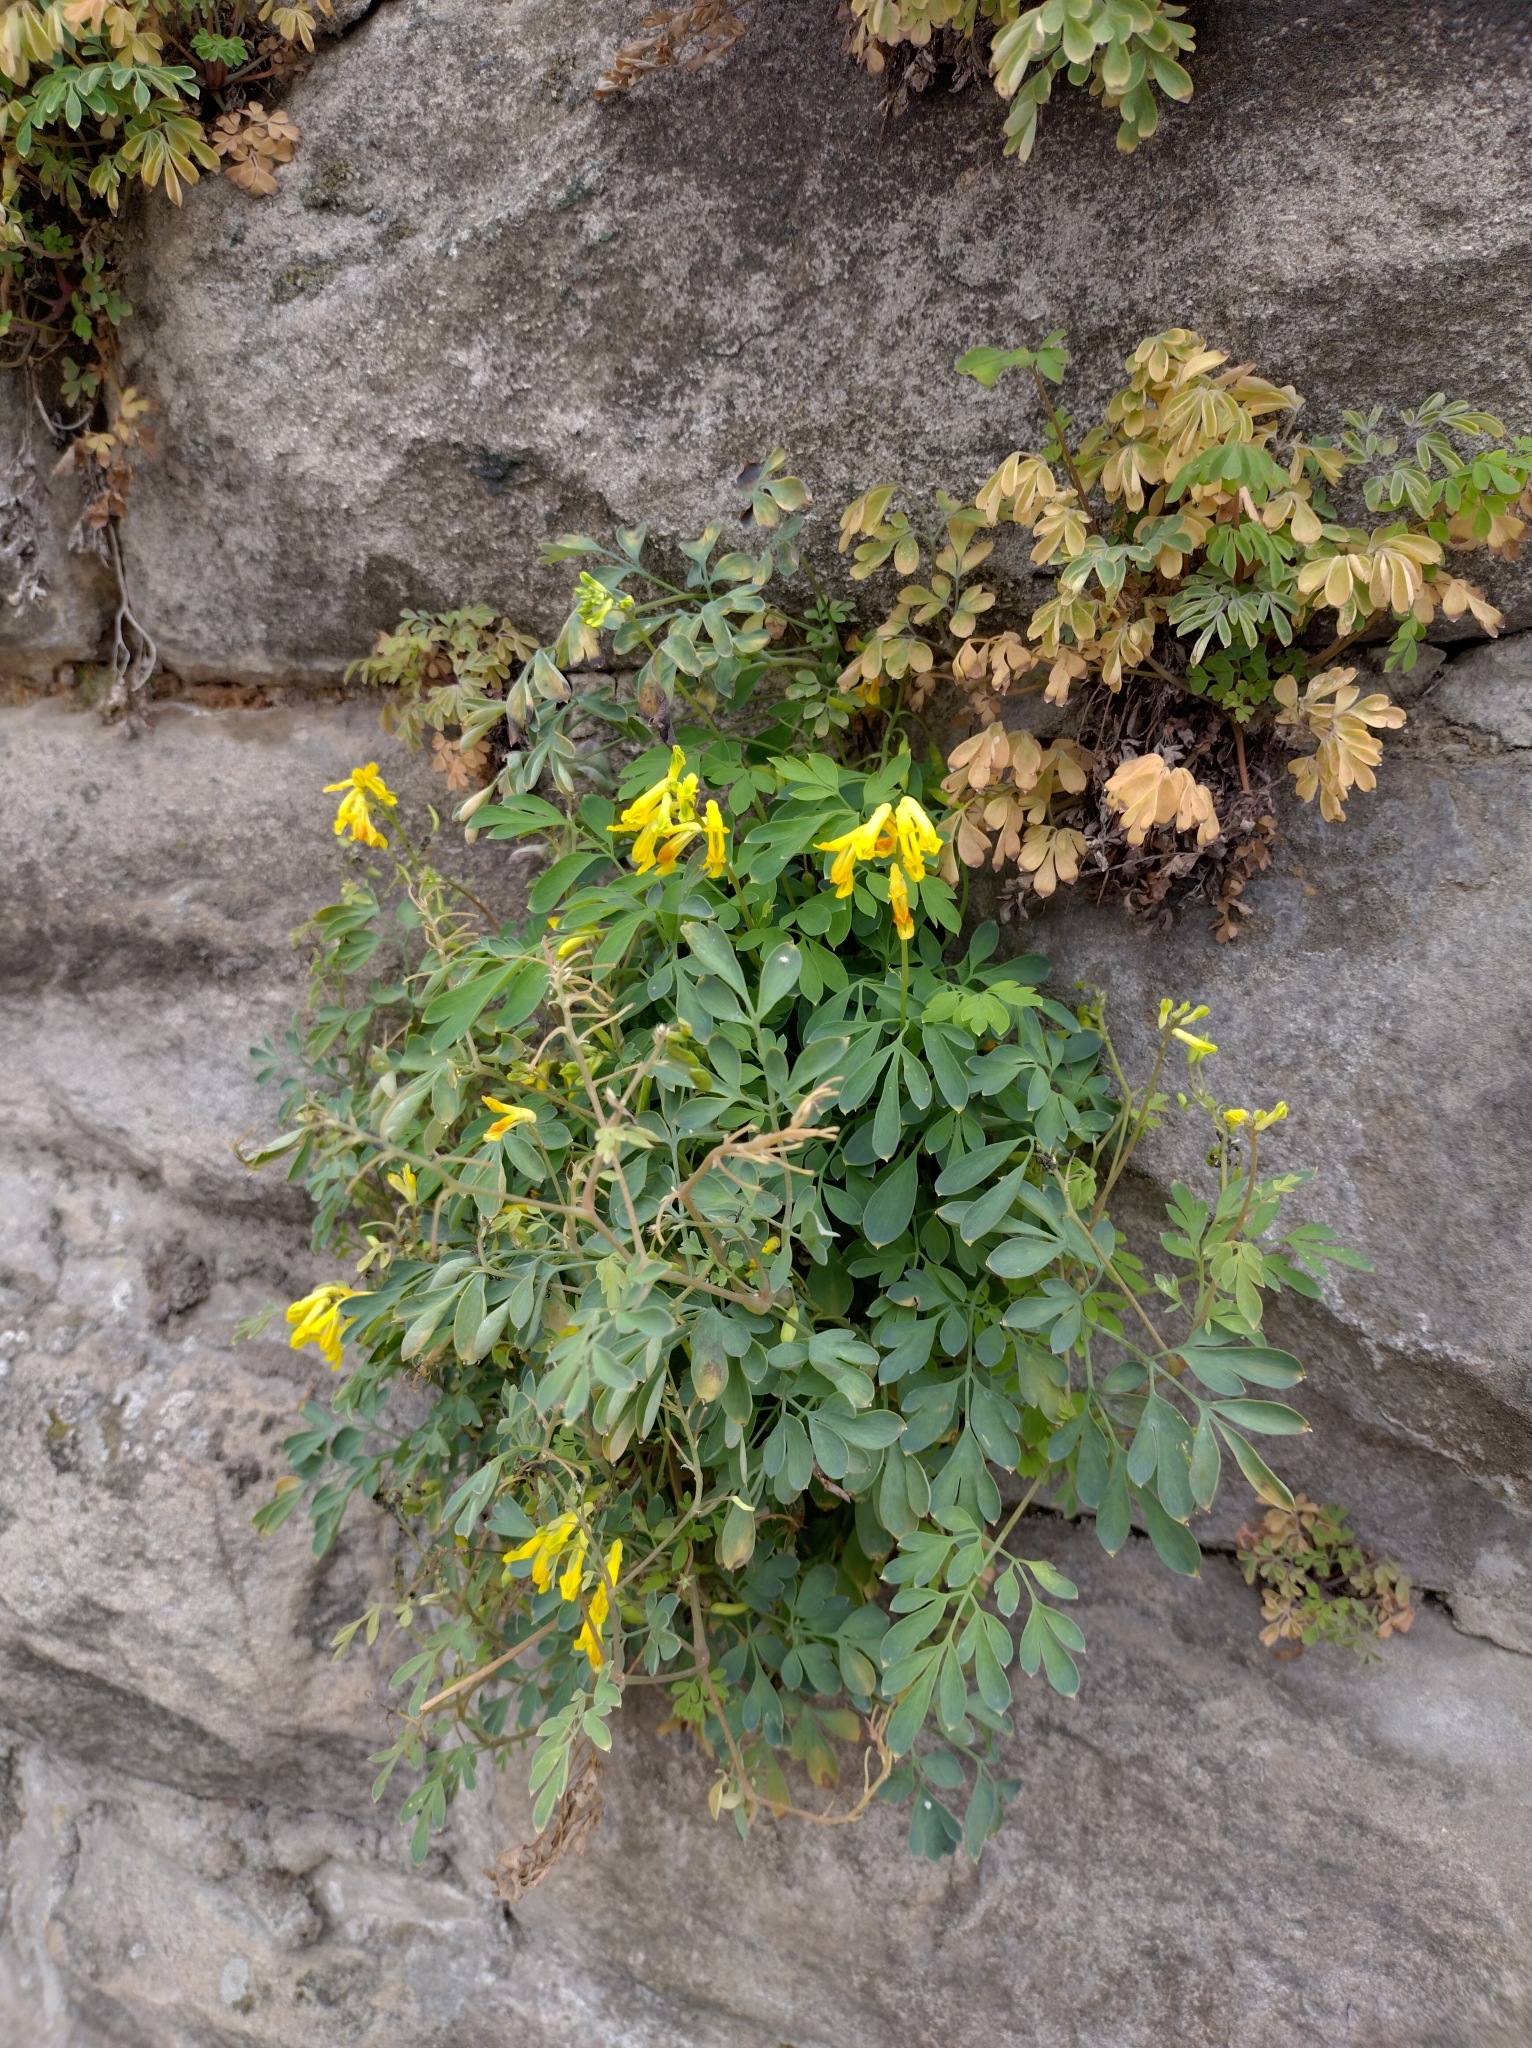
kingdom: Plantae
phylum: Tracheophyta
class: Magnoliopsida
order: Ranunculales
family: Papaveraceae
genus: Pseudofumaria
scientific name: Pseudofumaria lutea
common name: Yellow corydalis
